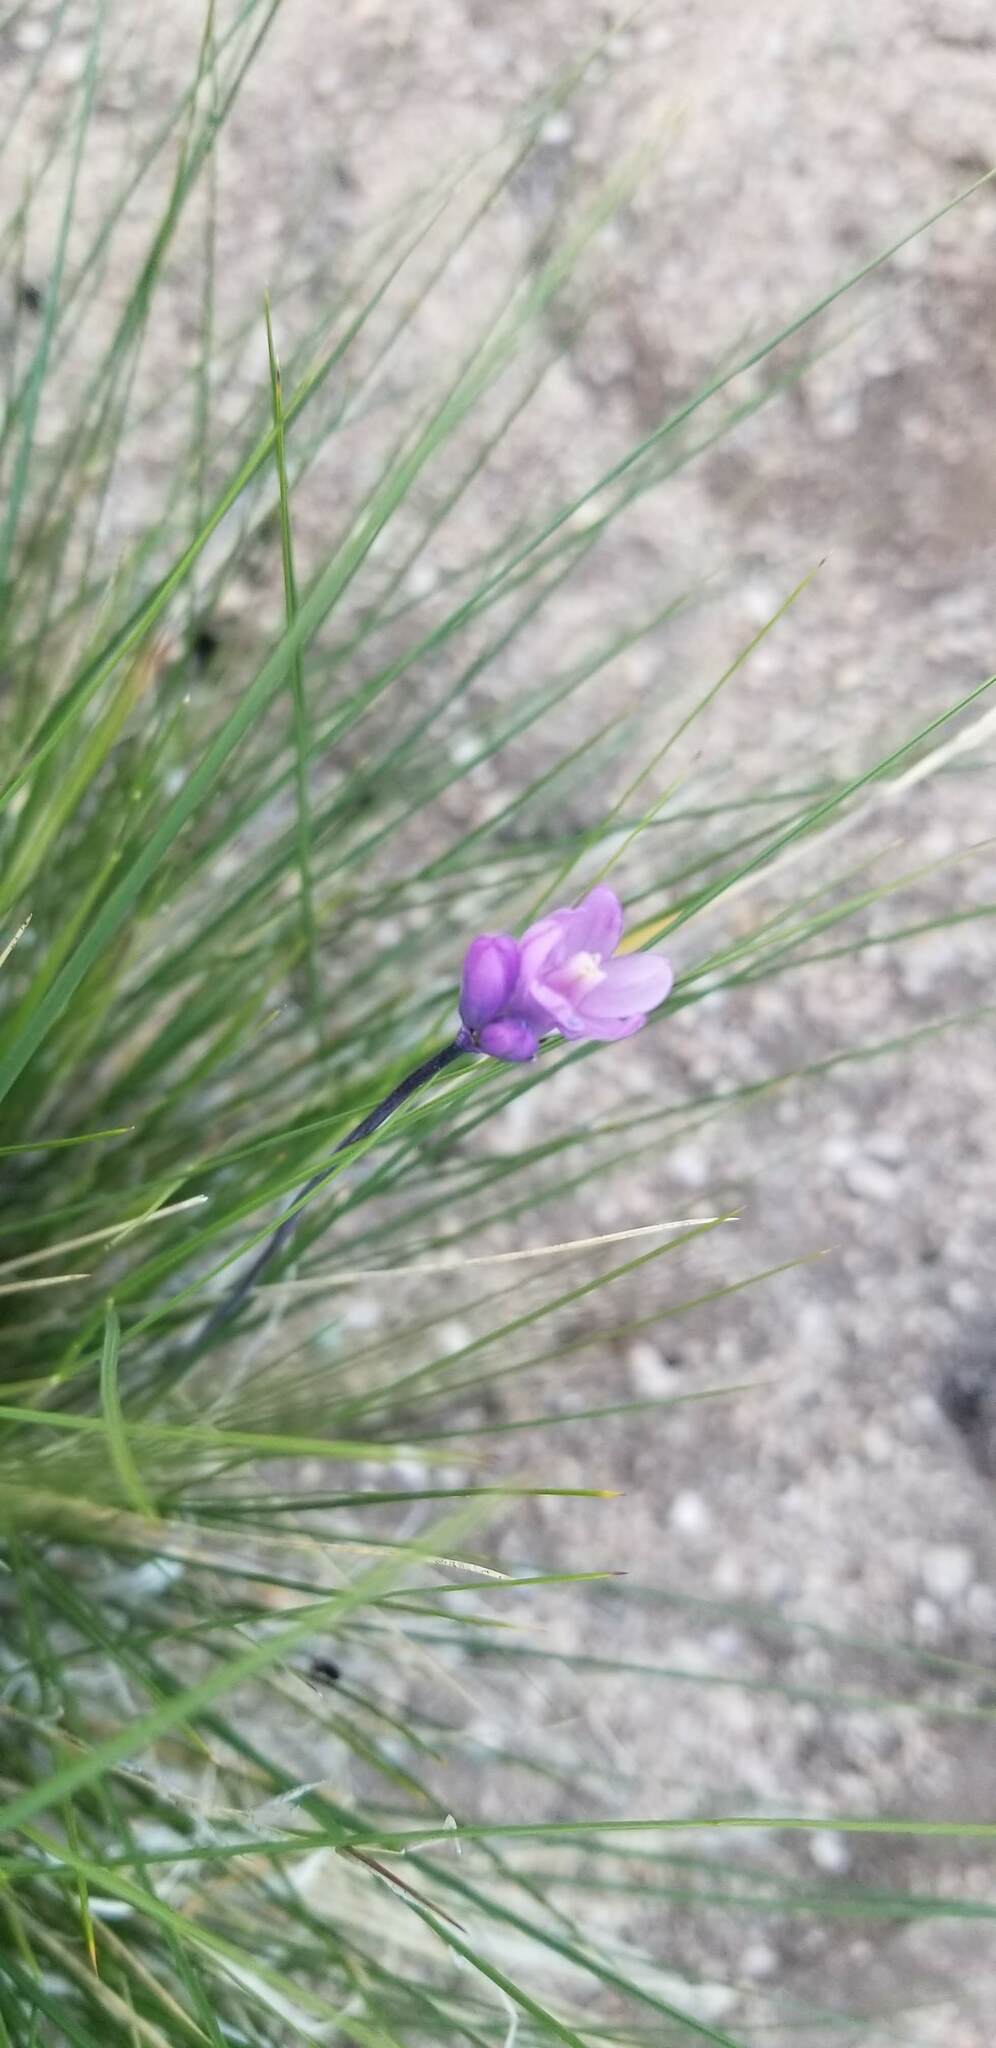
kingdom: Plantae
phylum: Tracheophyta
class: Liliopsida
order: Asparagales
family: Asparagaceae
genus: Dipterostemon
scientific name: Dipterostemon capitatus
